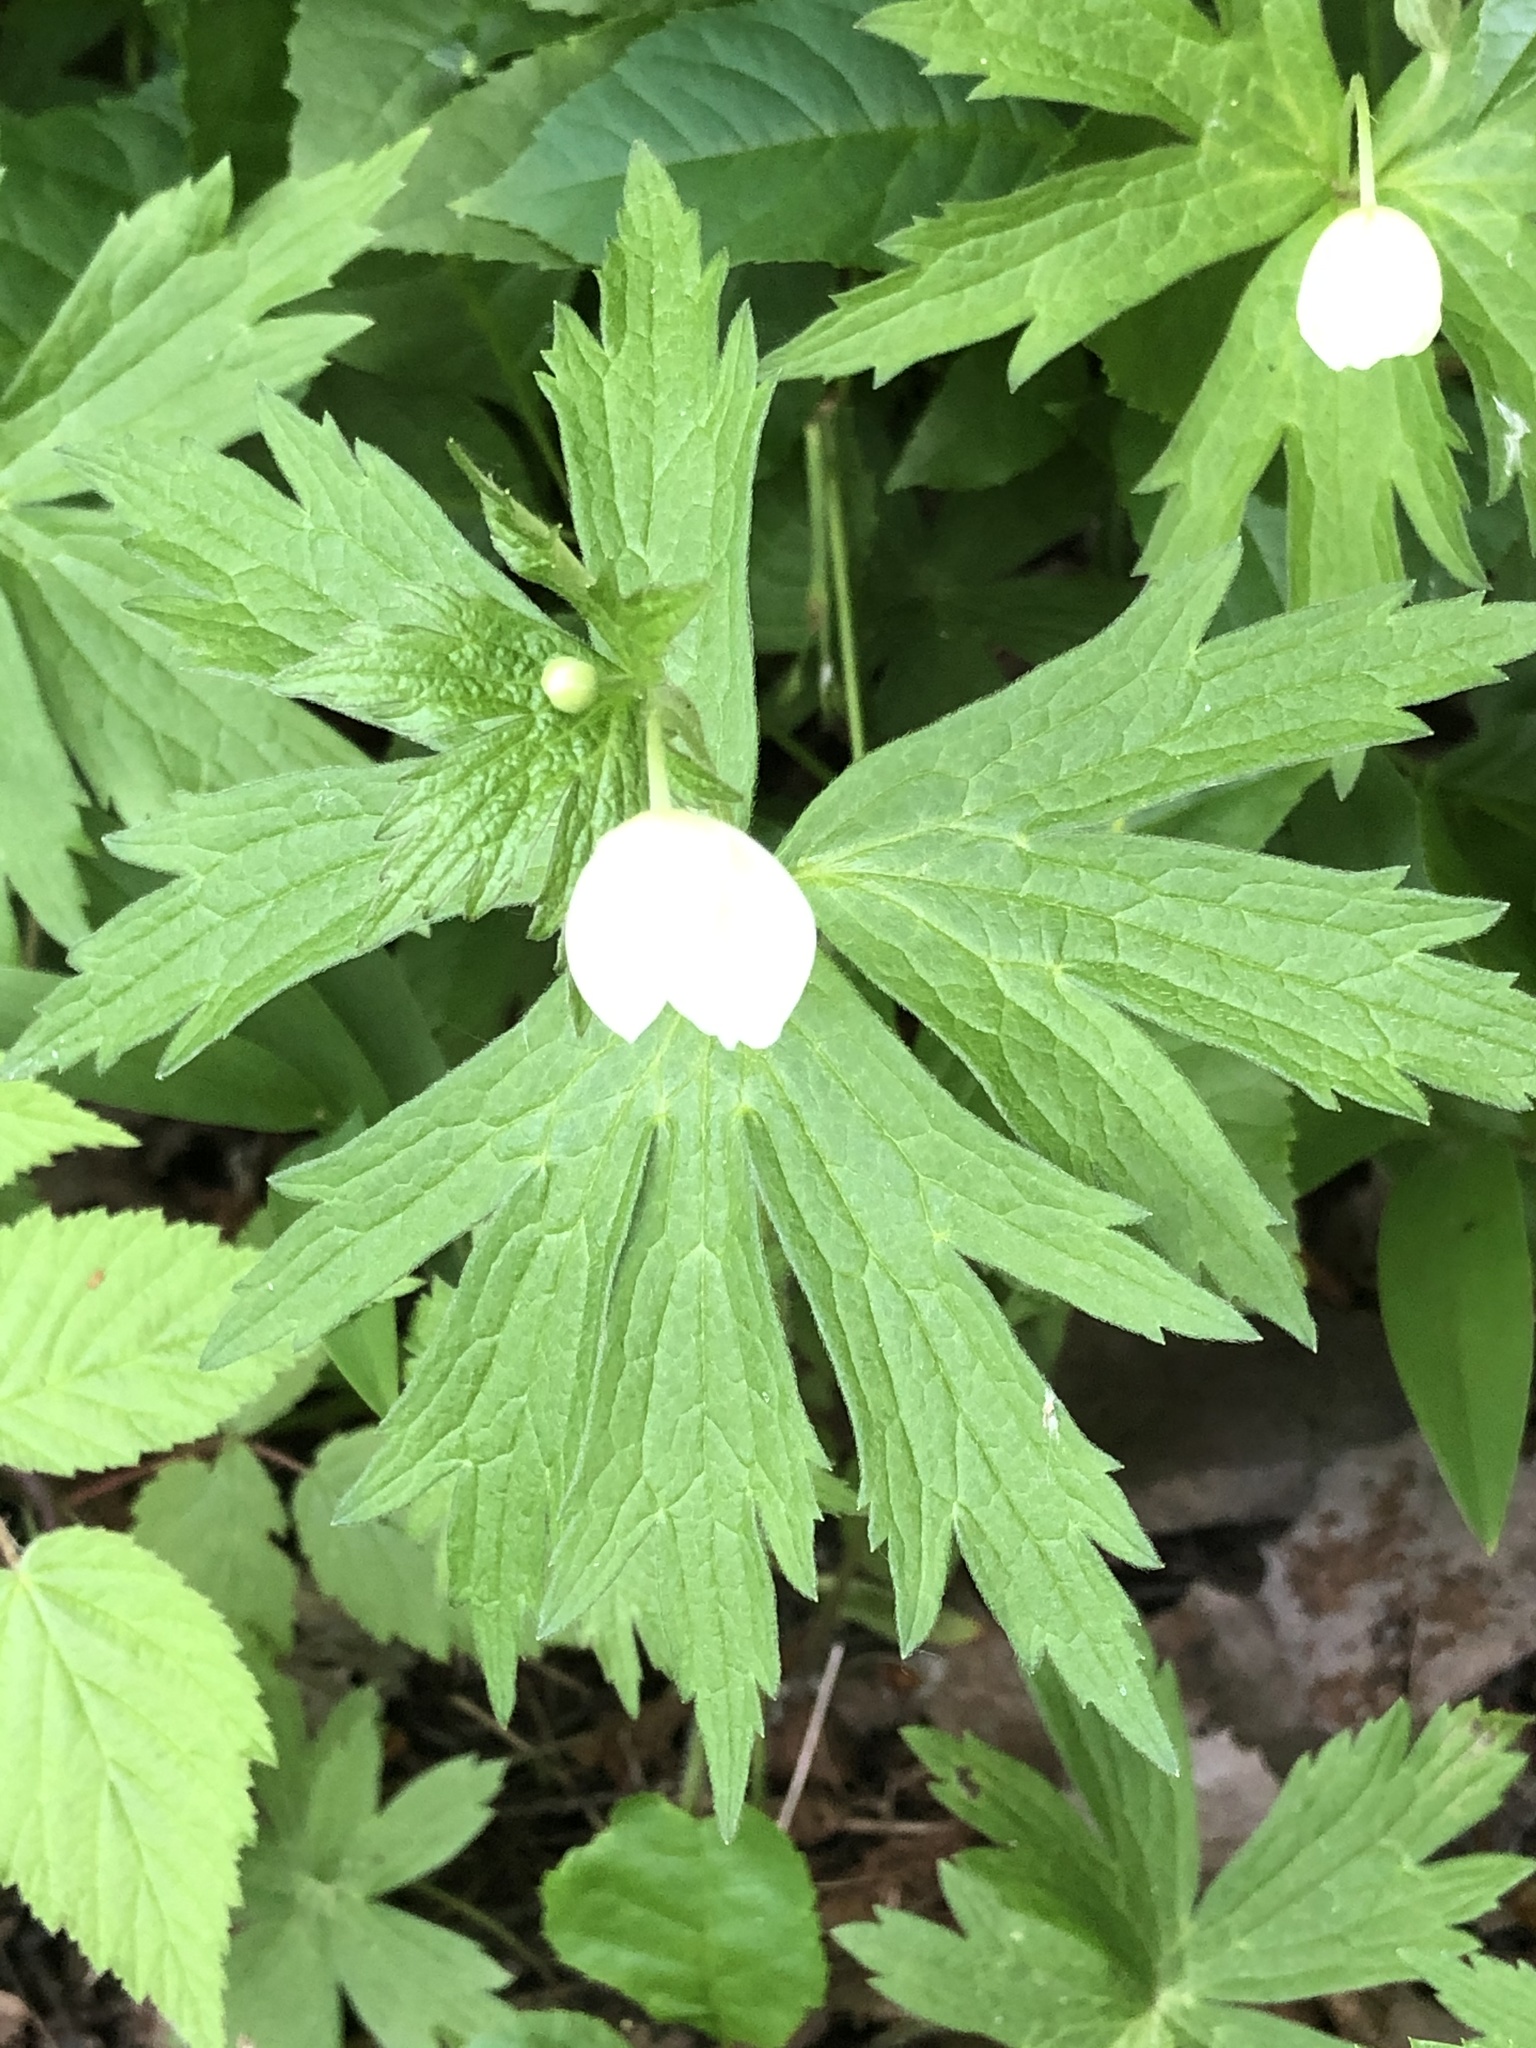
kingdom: Plantae
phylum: Tracheophyta
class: Magnoliopsida
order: Ranunculales
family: Ranunculaceae
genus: Anemonastrum
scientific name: Anemonastrum canadense
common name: Canada anemone
